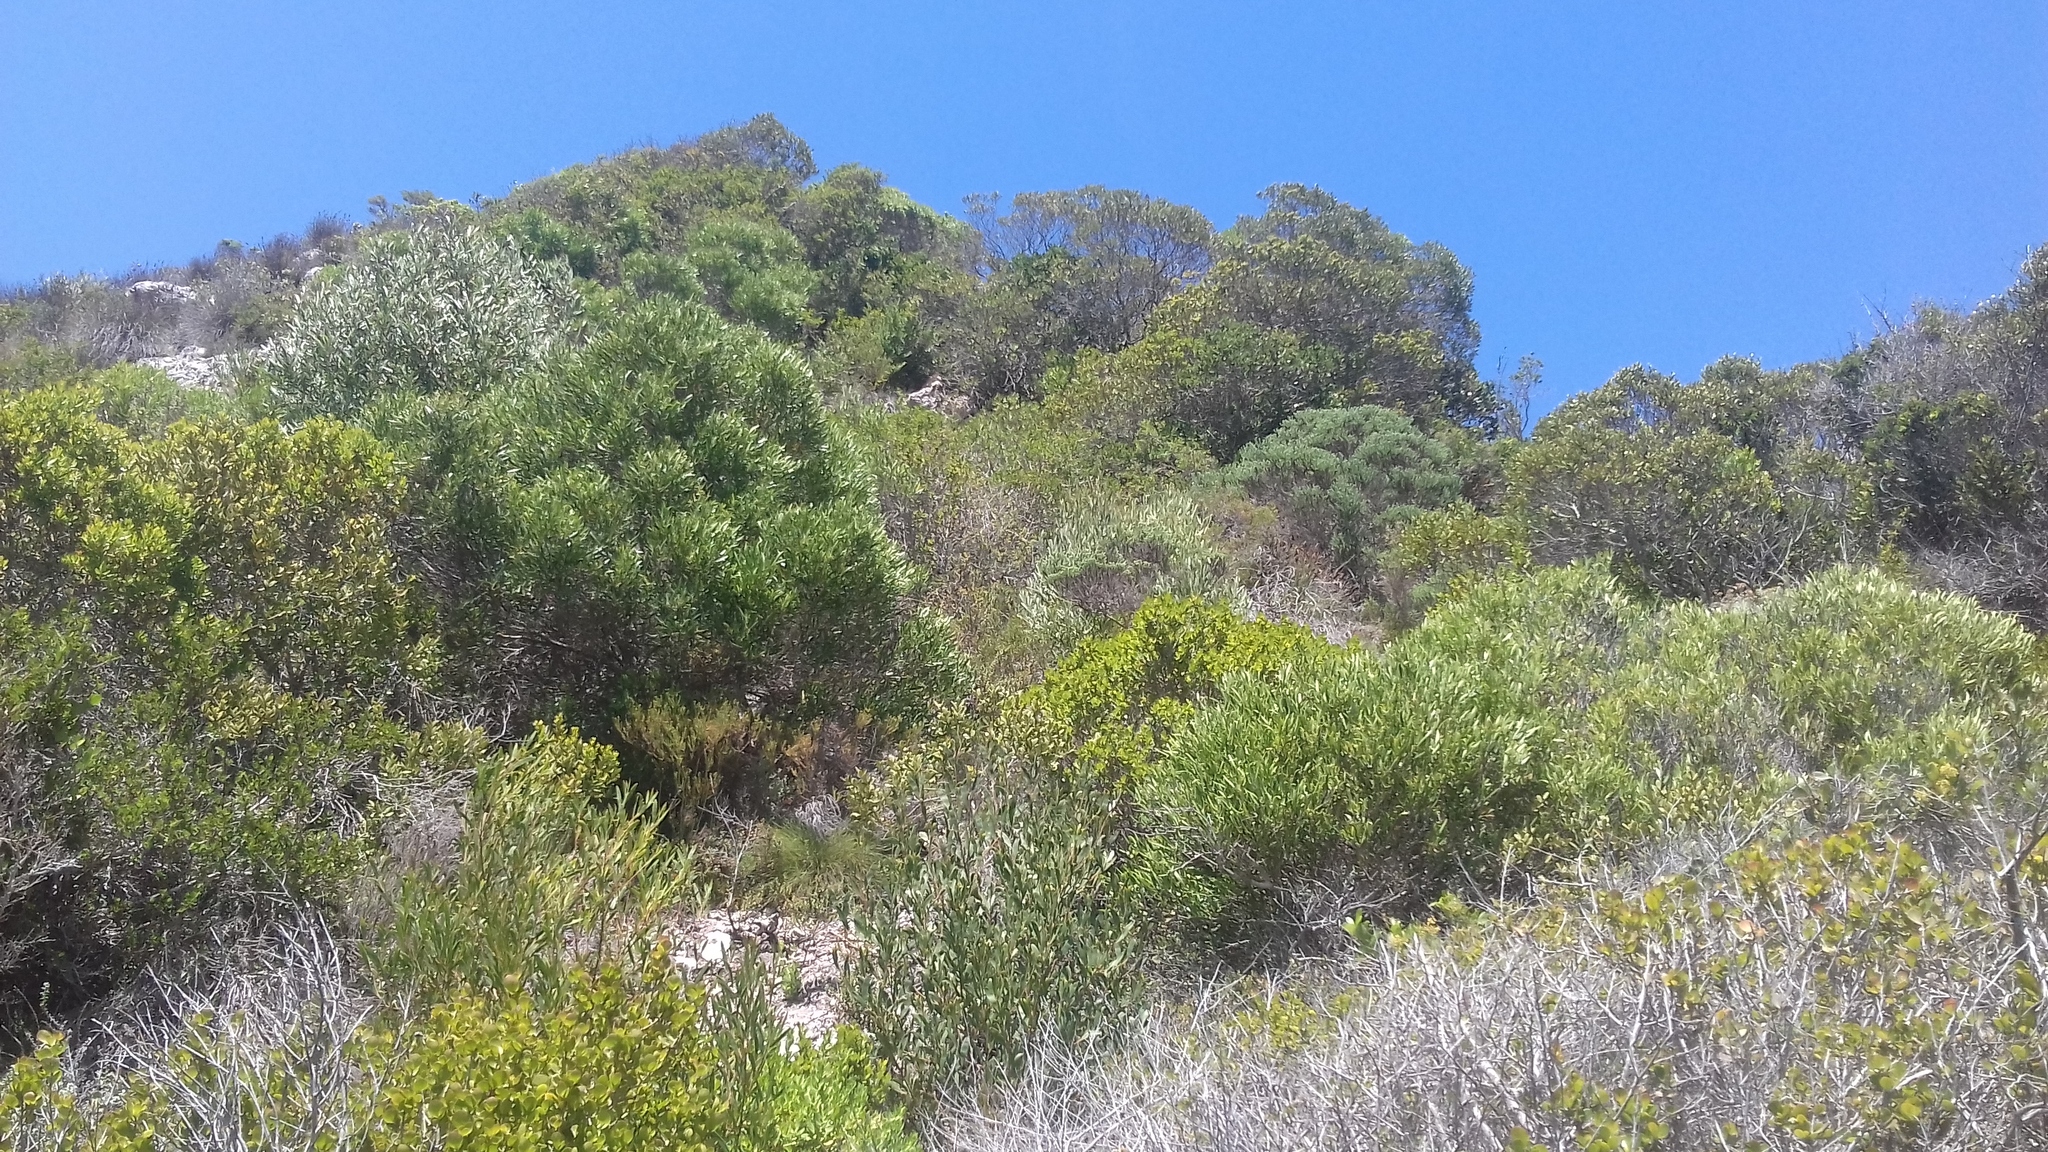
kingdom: Plantae
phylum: Tracheophyta
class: Magnoliopsida
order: Fabales
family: Fabaceae
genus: Acacia
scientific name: Acacia cyclops
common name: Coastal wattle
